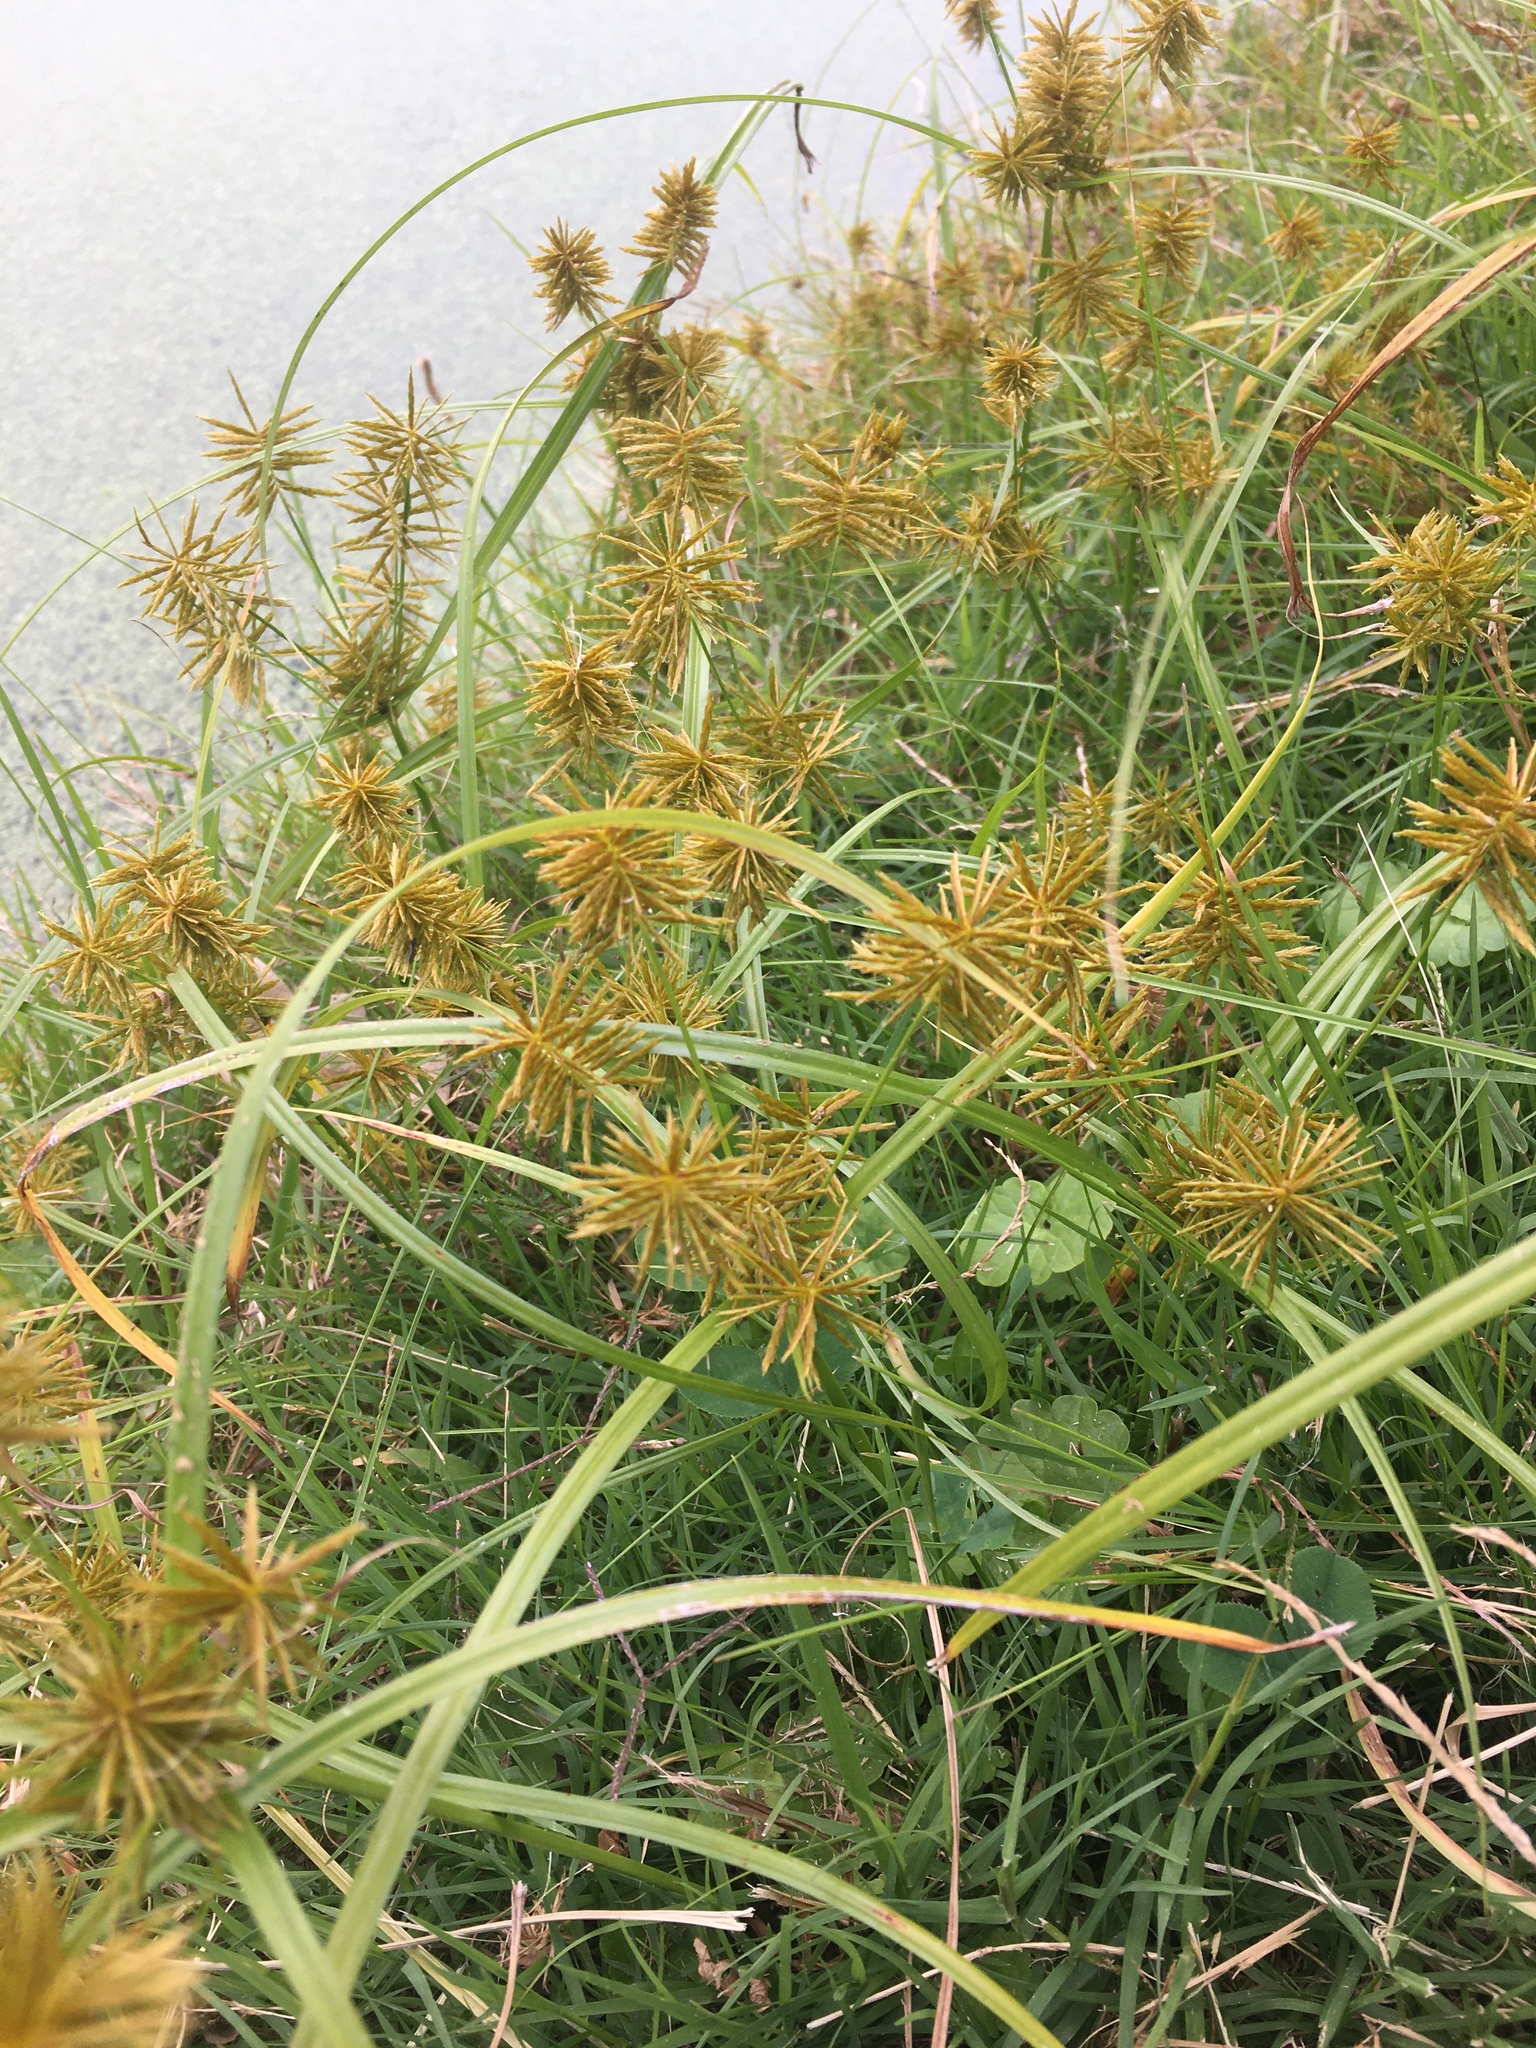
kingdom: Plantae
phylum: Tracheophyta
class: Liliopsida
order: Poales
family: Cyperaceae
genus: Cyperus
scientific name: Cyperus strigosus
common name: False nutsedge
